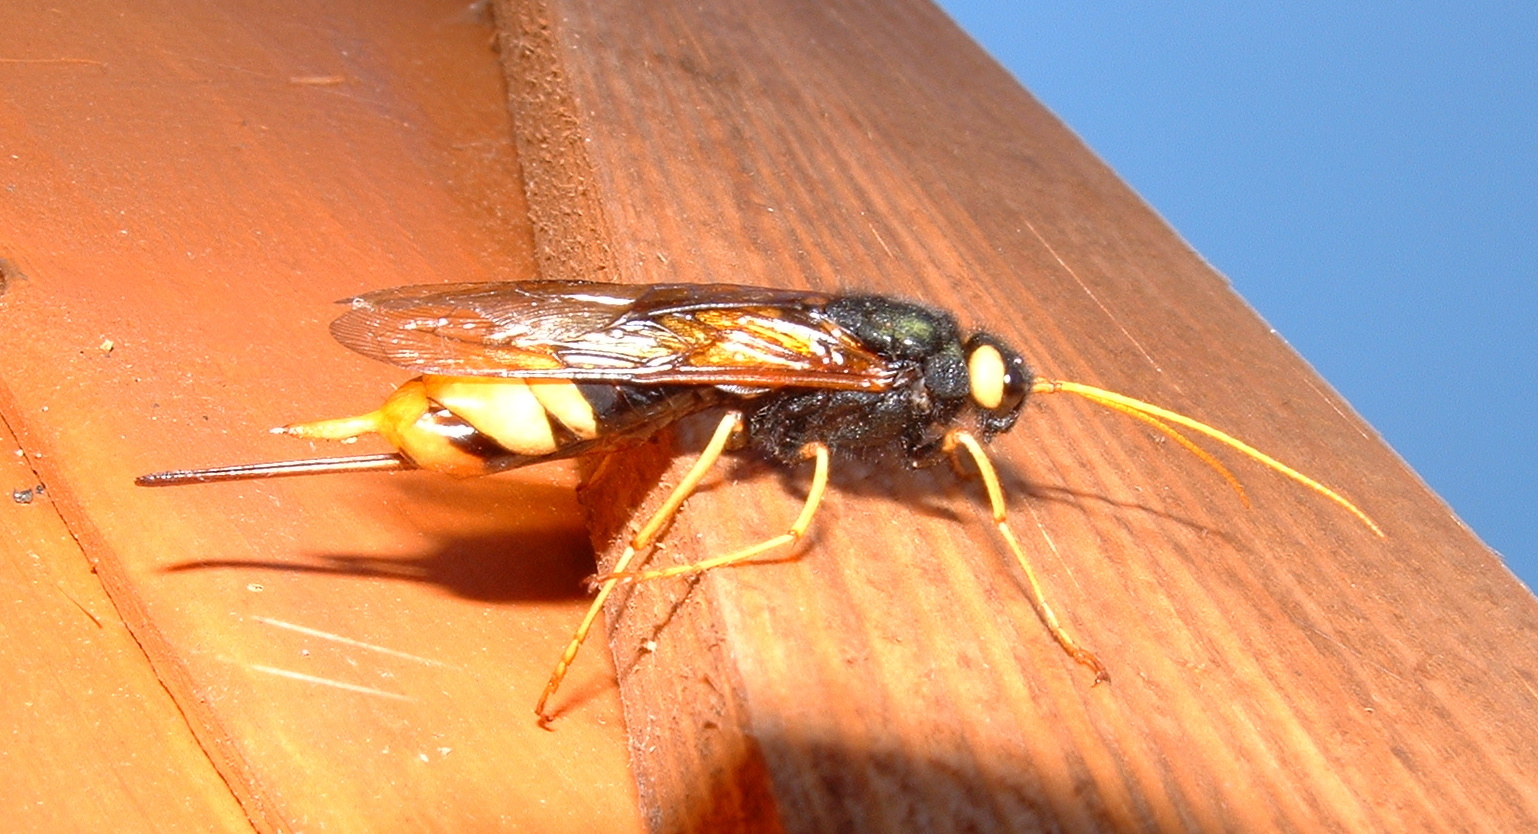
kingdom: Animalia
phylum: Arthropoda
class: Insecta
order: Hymenoptera
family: Siricidae
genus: Urocerus
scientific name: Urocerus gigas
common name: Giant woodwasp
